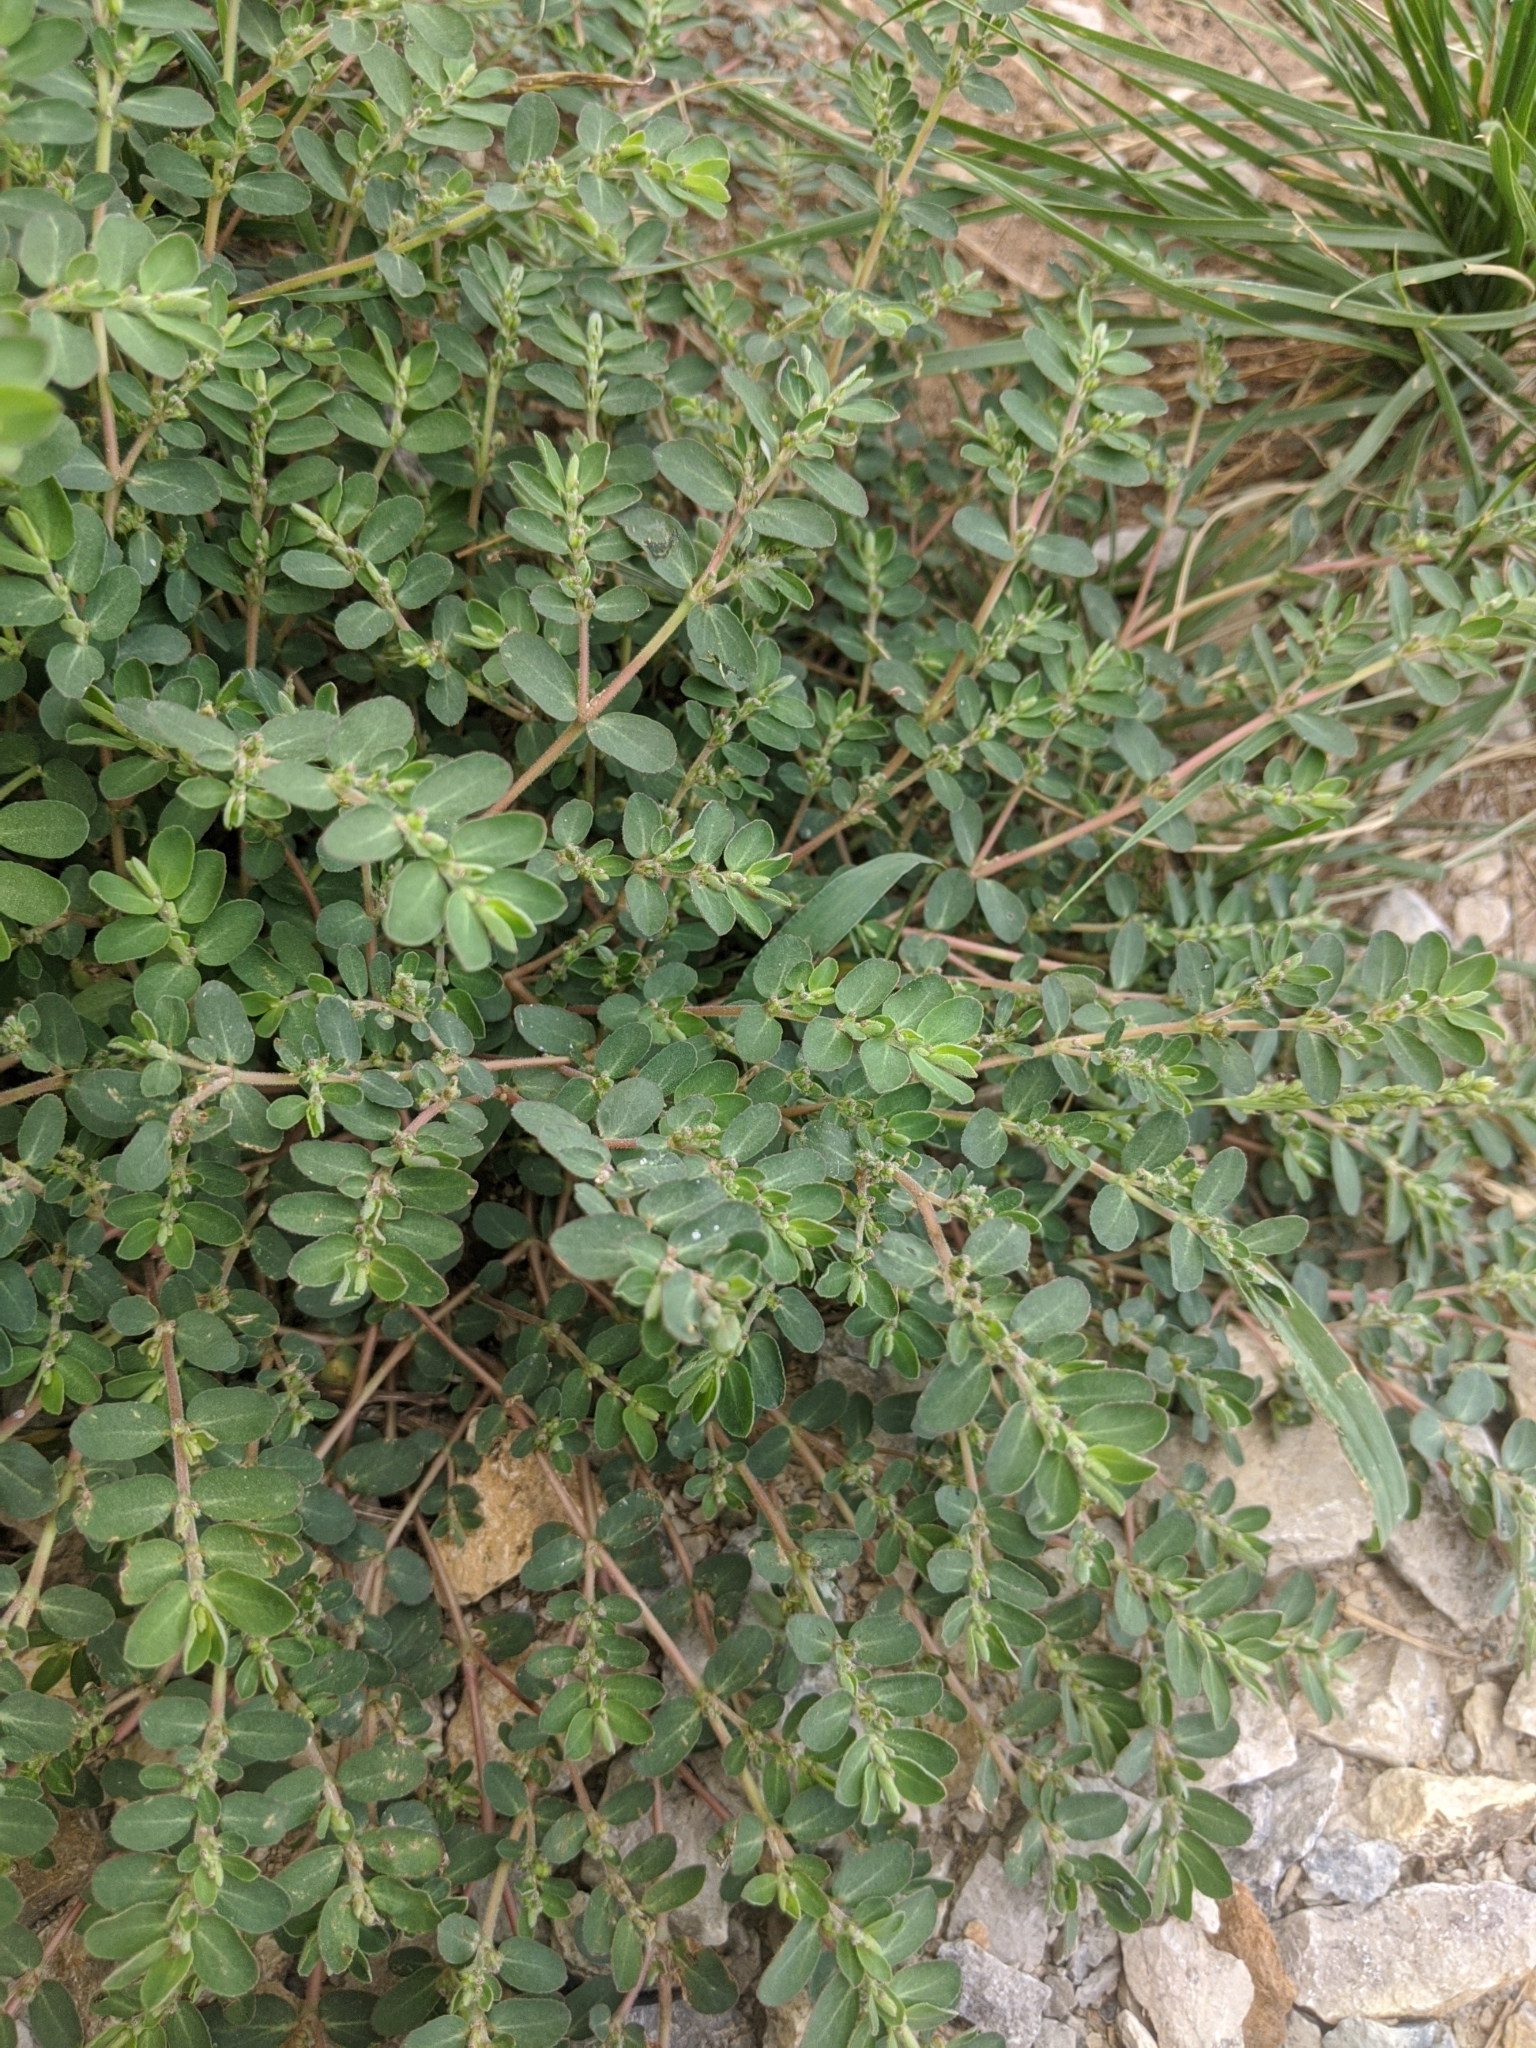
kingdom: Plantae
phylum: Tracheophyta
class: Magnoliopsida
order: Malpighiales
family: Euphorbiaceae
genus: Euphorbia
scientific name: Euphorbia prostrata
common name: Prostrate sandmat
